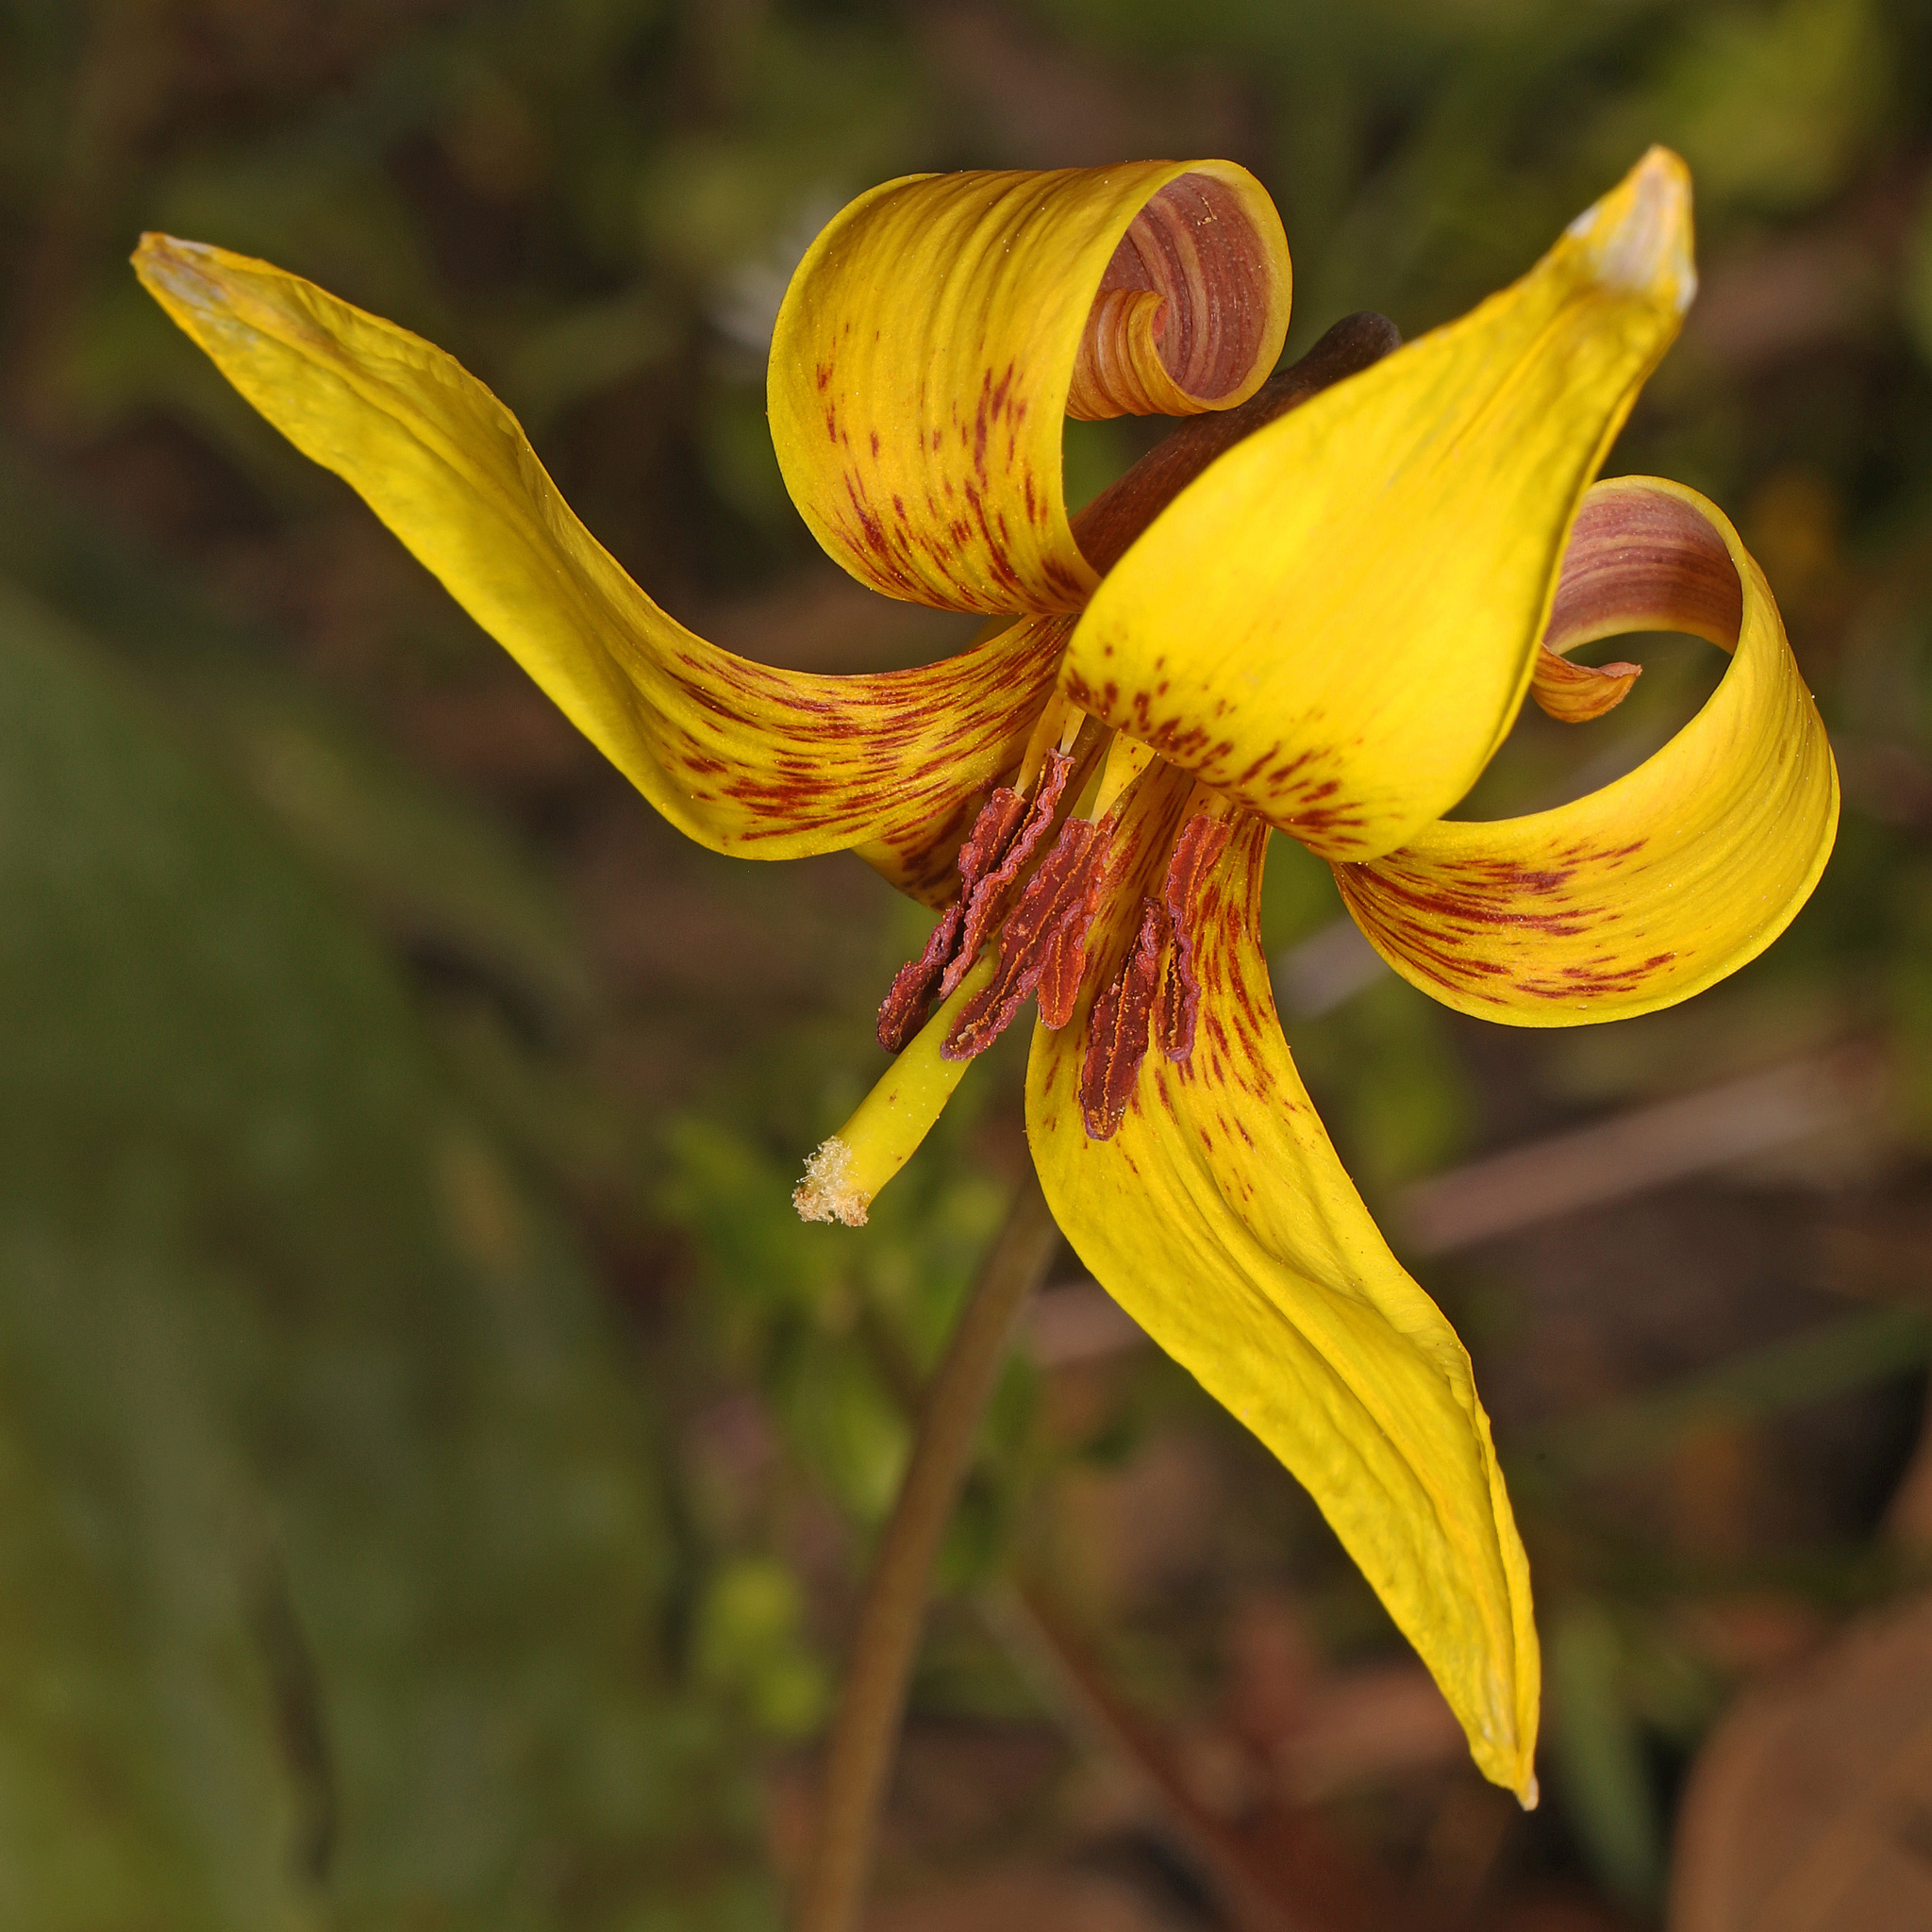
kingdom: Plantae
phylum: Tracheophyta
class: Liliopsida
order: Liliales
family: Liliaceae
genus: Erythronium
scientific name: Erythronium americanum
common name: Yellow adder's-tongue
